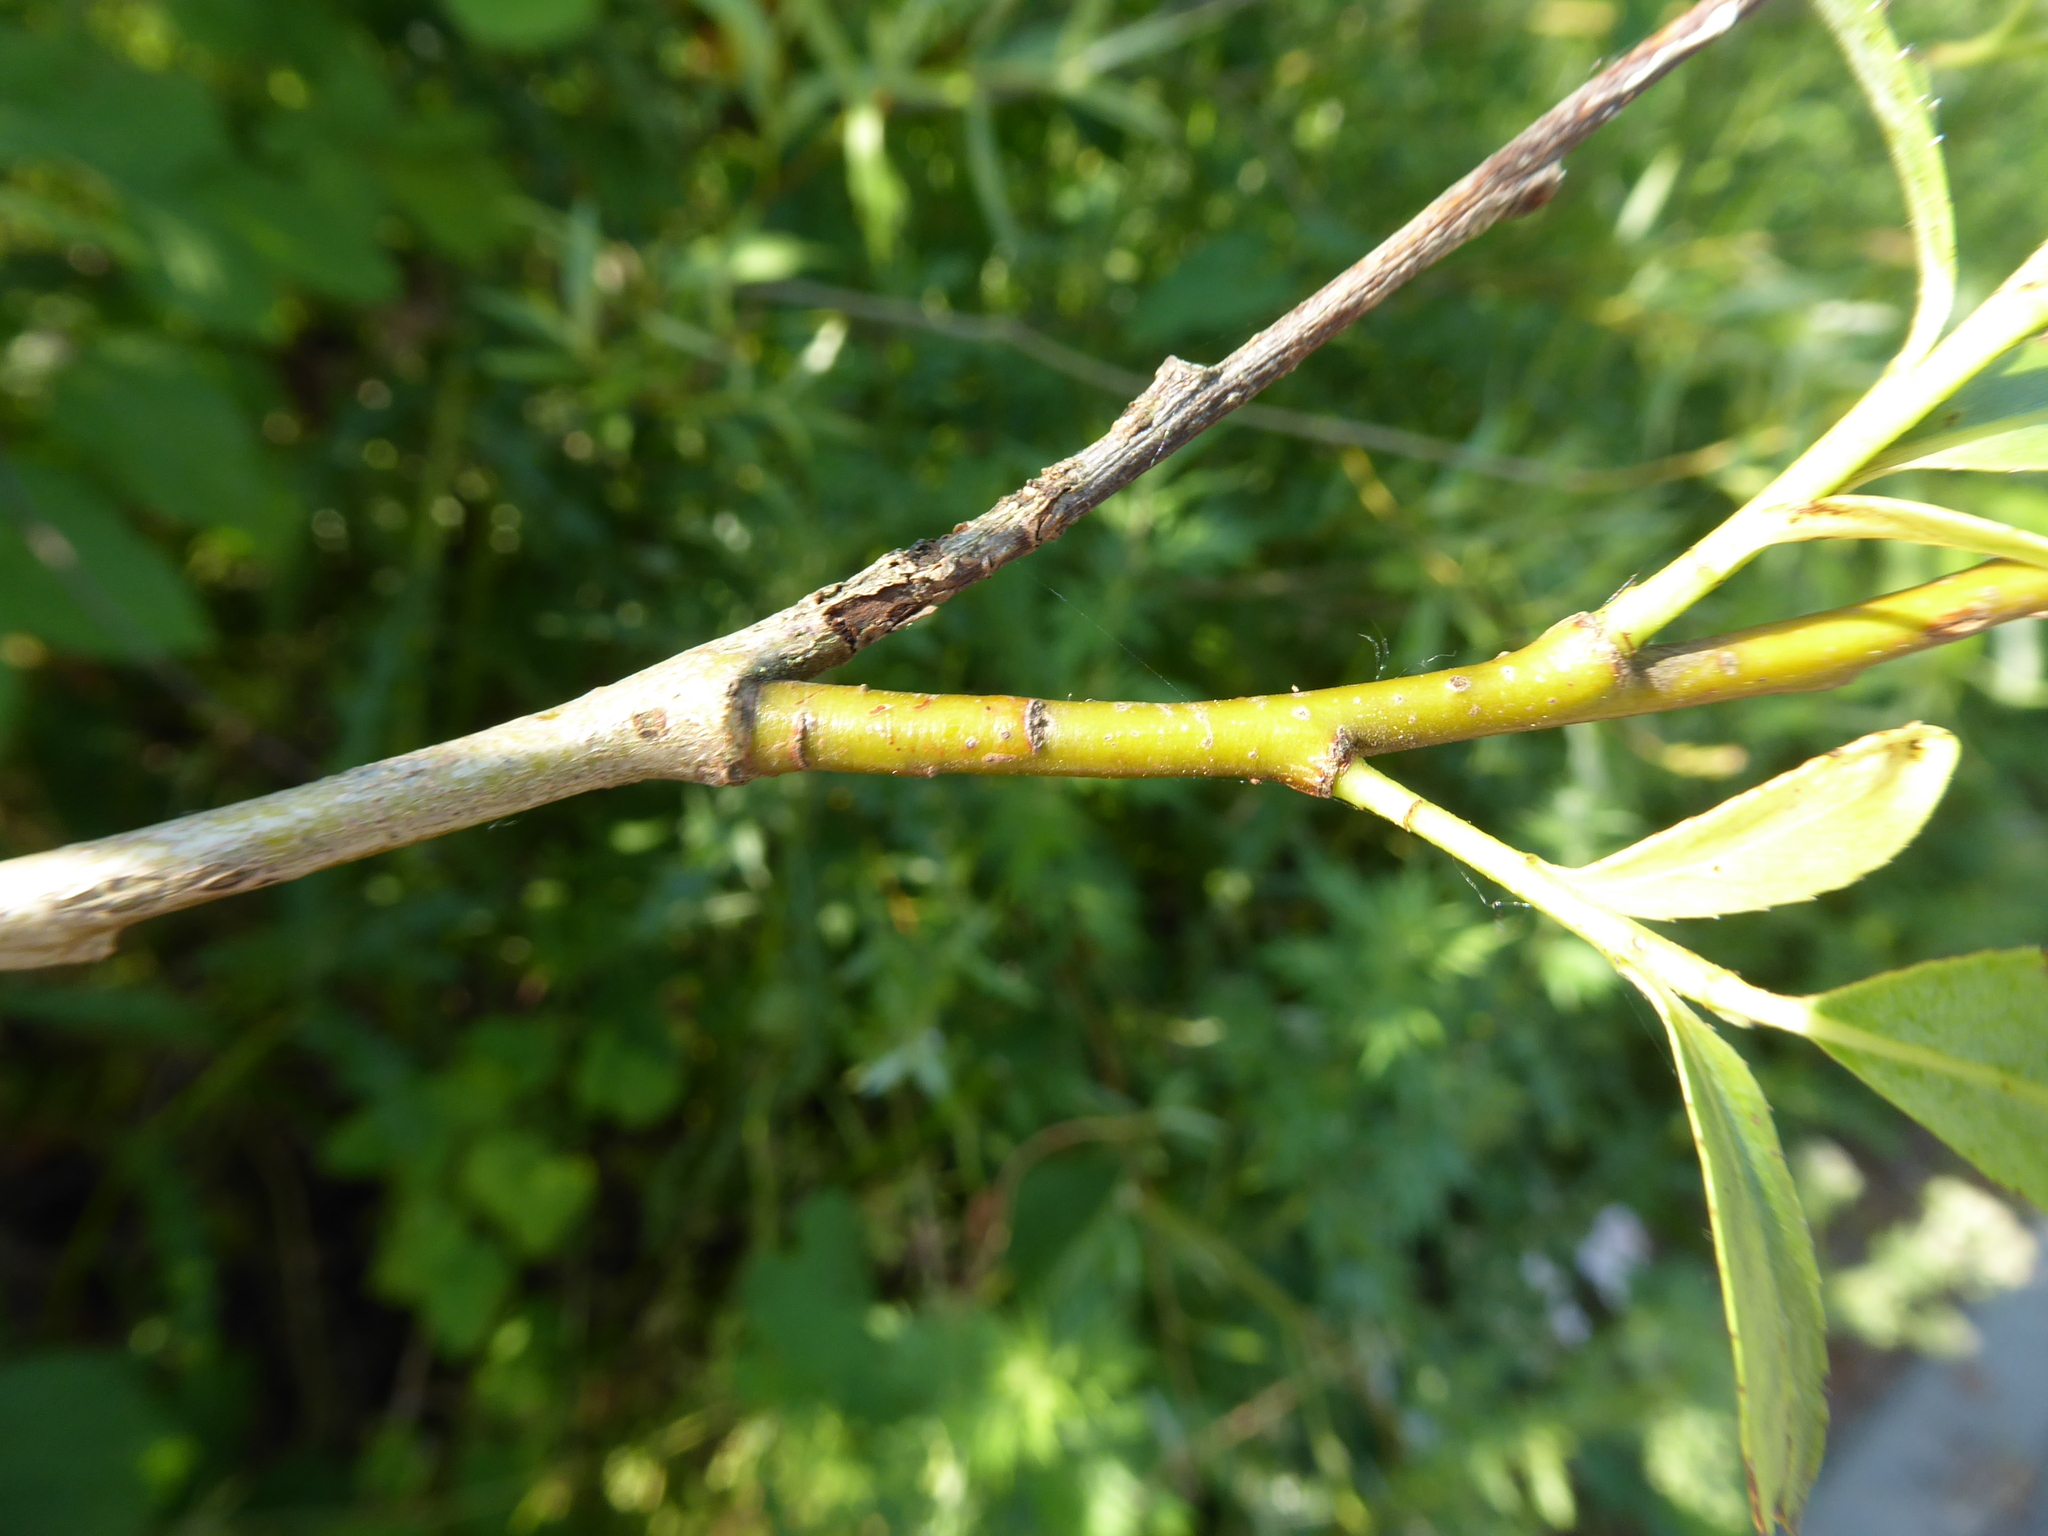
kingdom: Plantae
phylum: Tracheophyta
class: Magnoliopsida
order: Malpighiales
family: Salicaceae
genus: Salix
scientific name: Salix fragilis
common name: Crack willow
